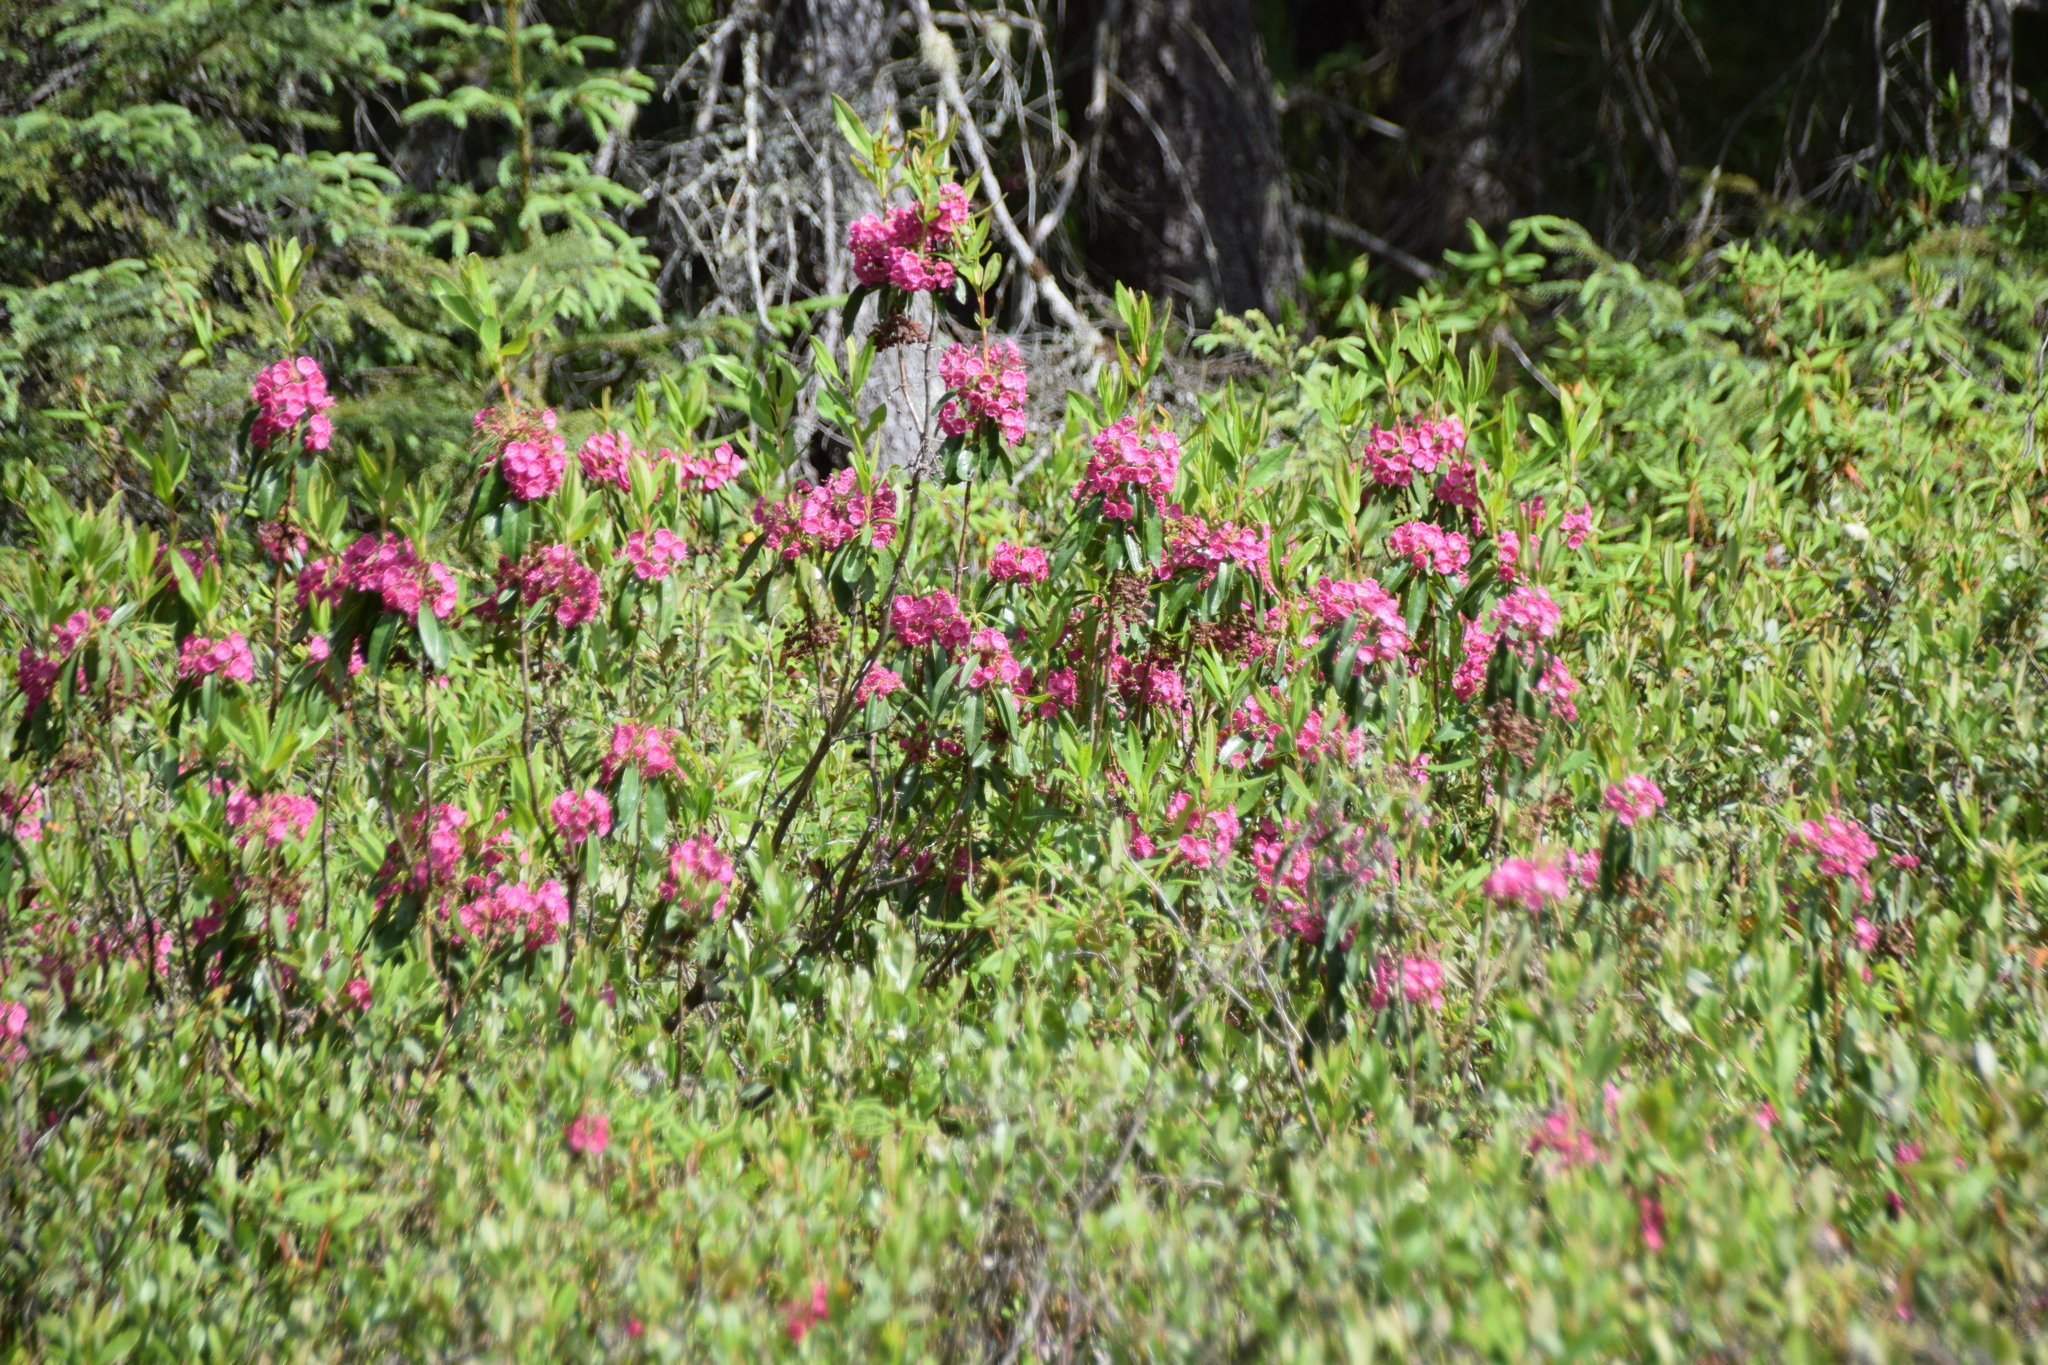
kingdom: Plantae
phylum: Tracheophyta
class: Magnoliopsida
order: Ericales
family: Ericaceae
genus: Kalmia
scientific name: Kalmia angustifolia
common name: Sheep-laurel
